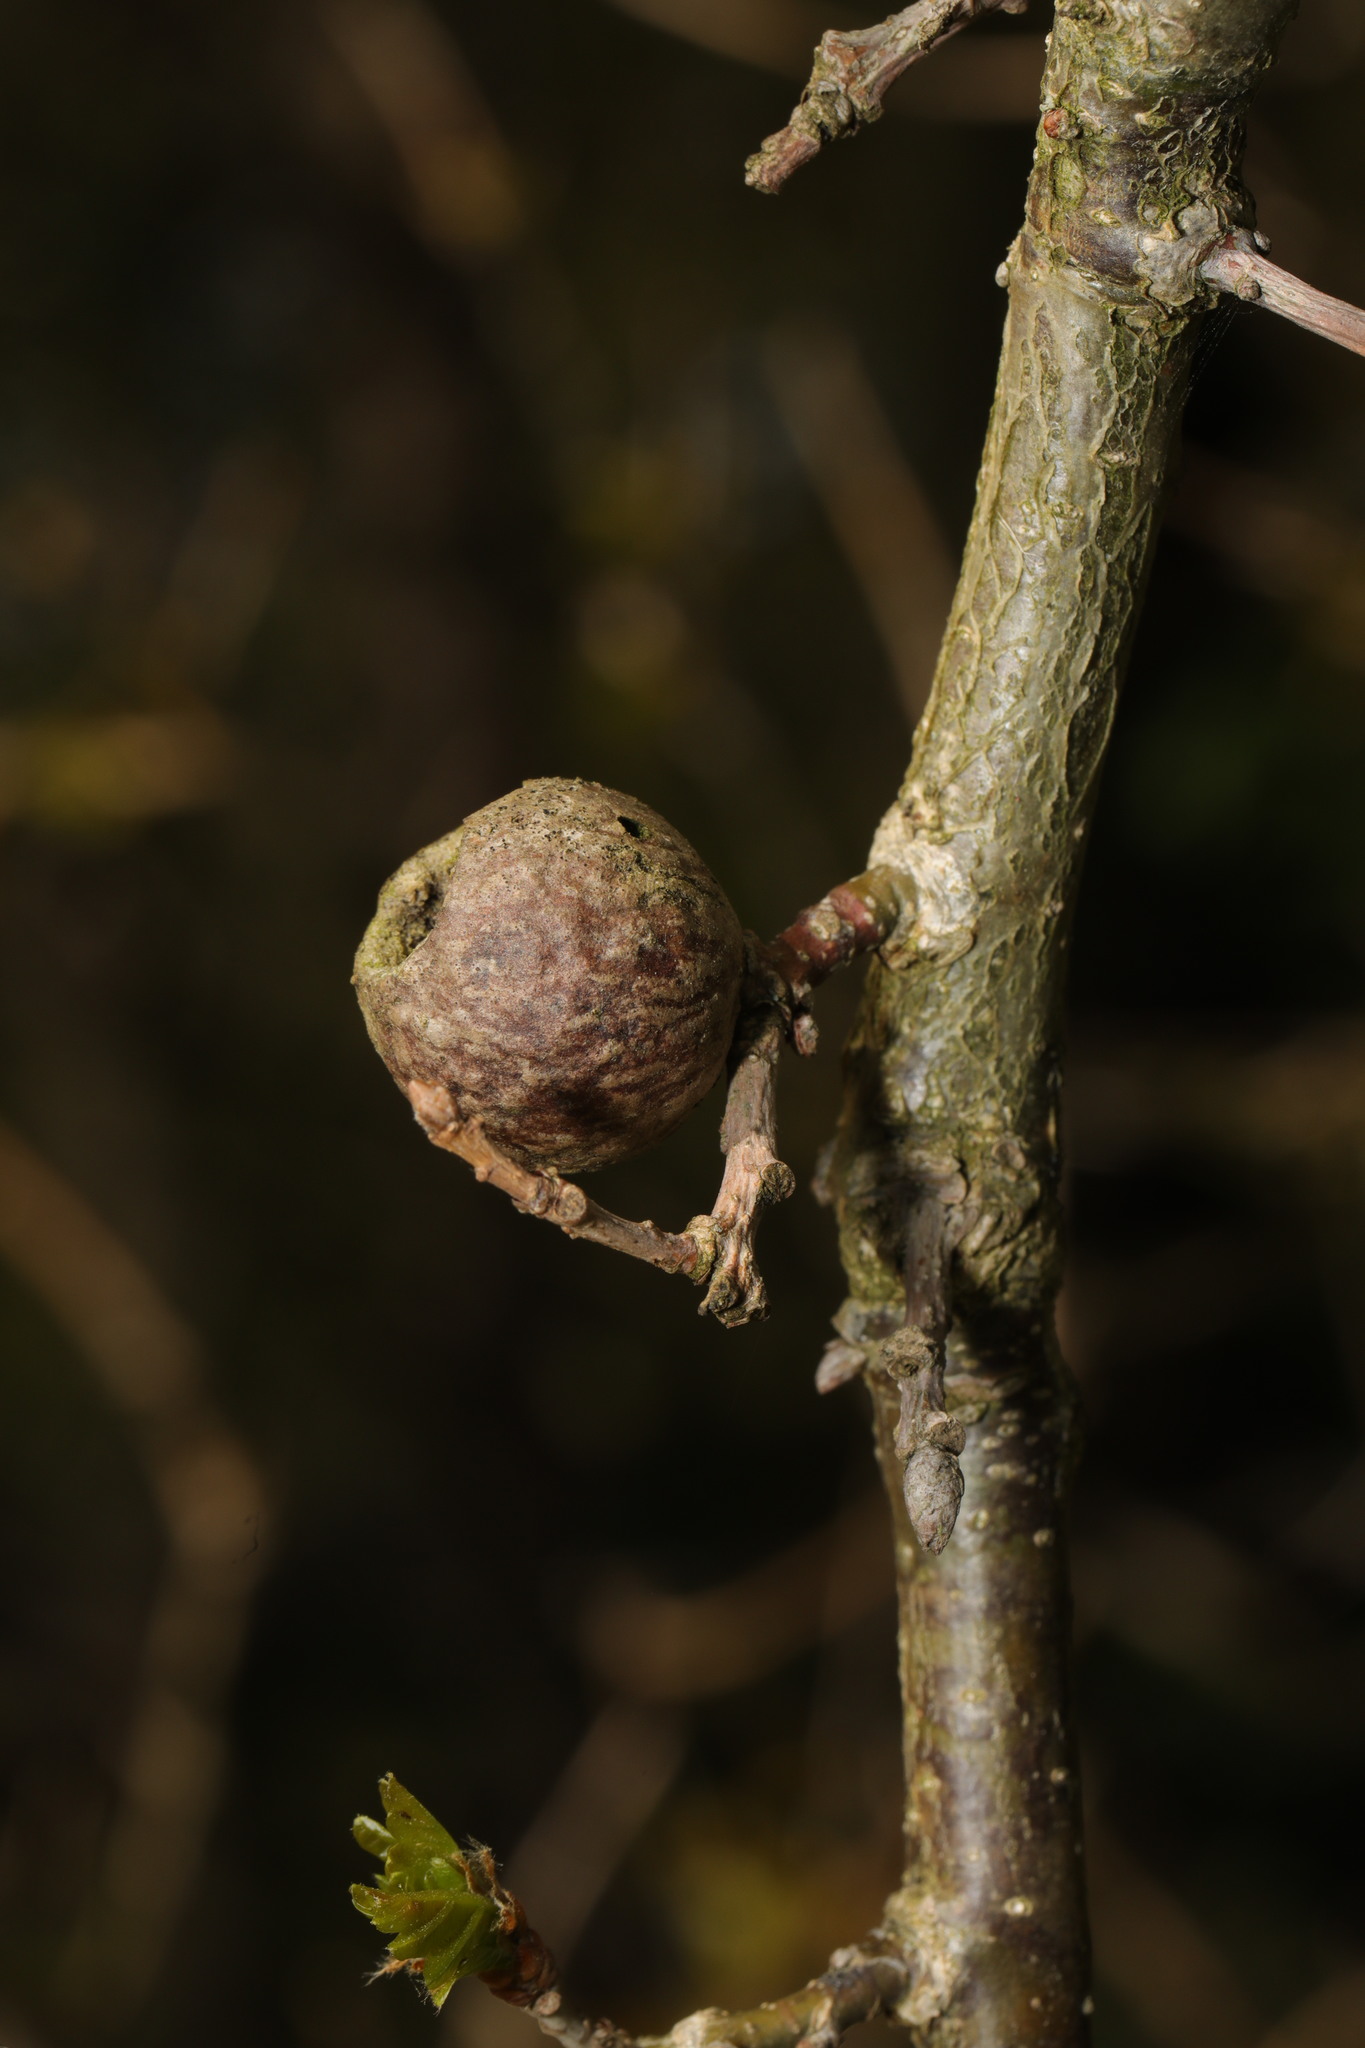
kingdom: Animalia
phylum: Arthropoda
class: Insecta
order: Hymenoptera
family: Cynipidae
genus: Andricus
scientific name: Andricus lignicolus
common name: Cola-nut gall
